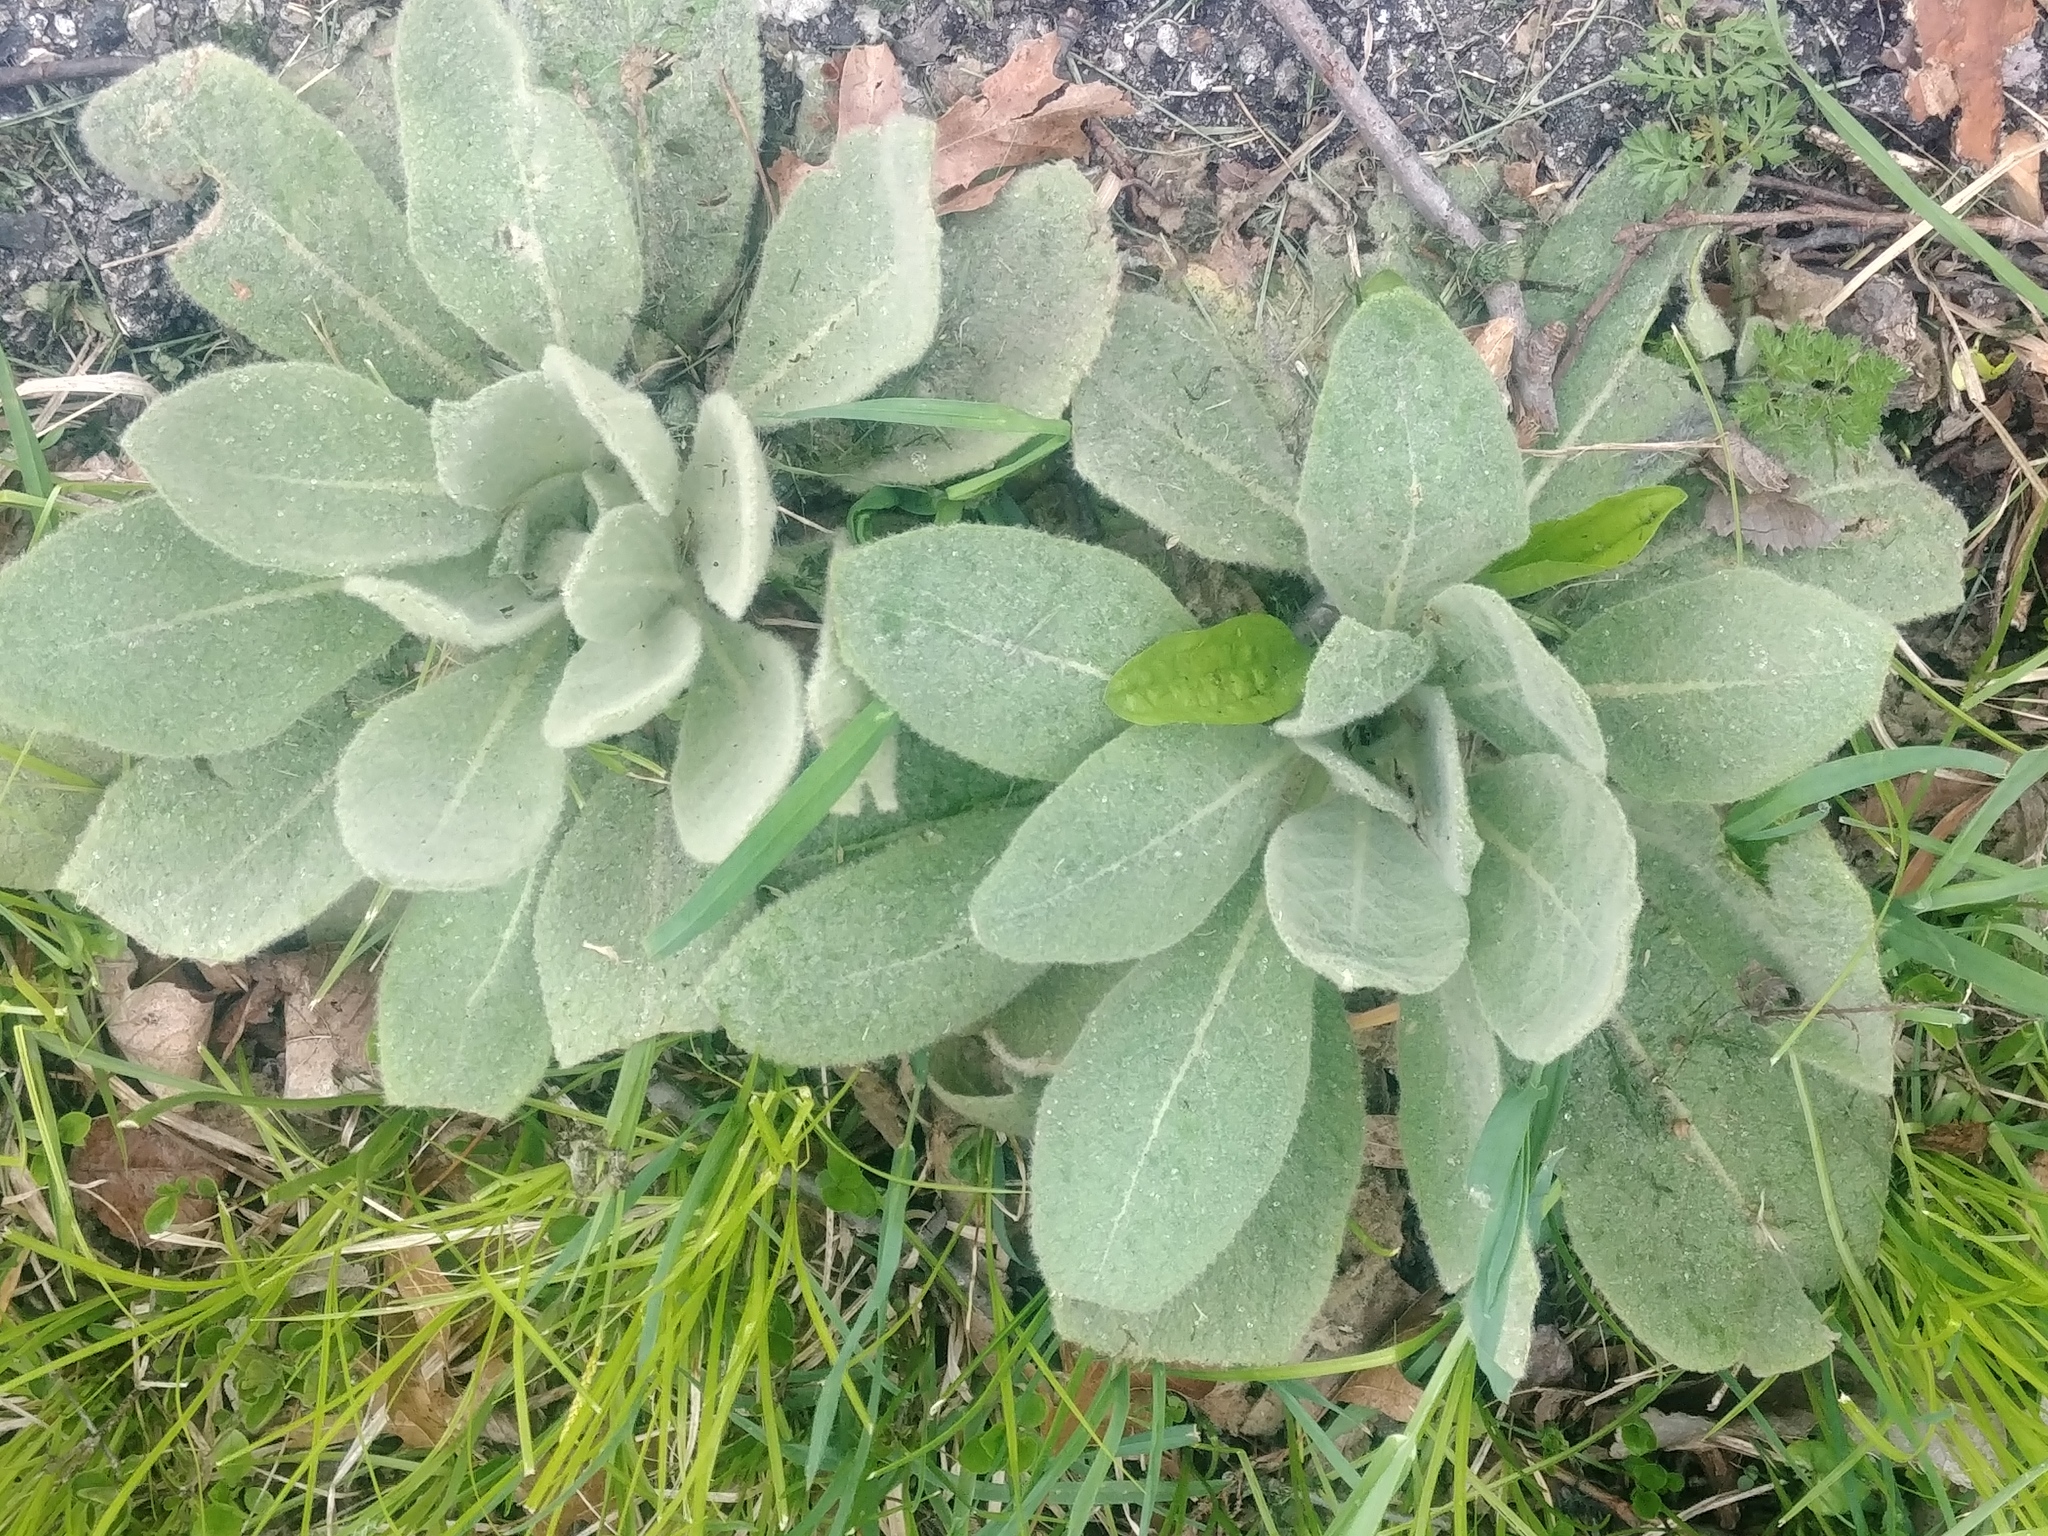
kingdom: Plantae
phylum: Tracheophyta
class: Magnoliopsida
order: Lamiales
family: Scrophulariaceae
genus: Verbascum
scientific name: Verbascum thapsus
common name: Common mullein
